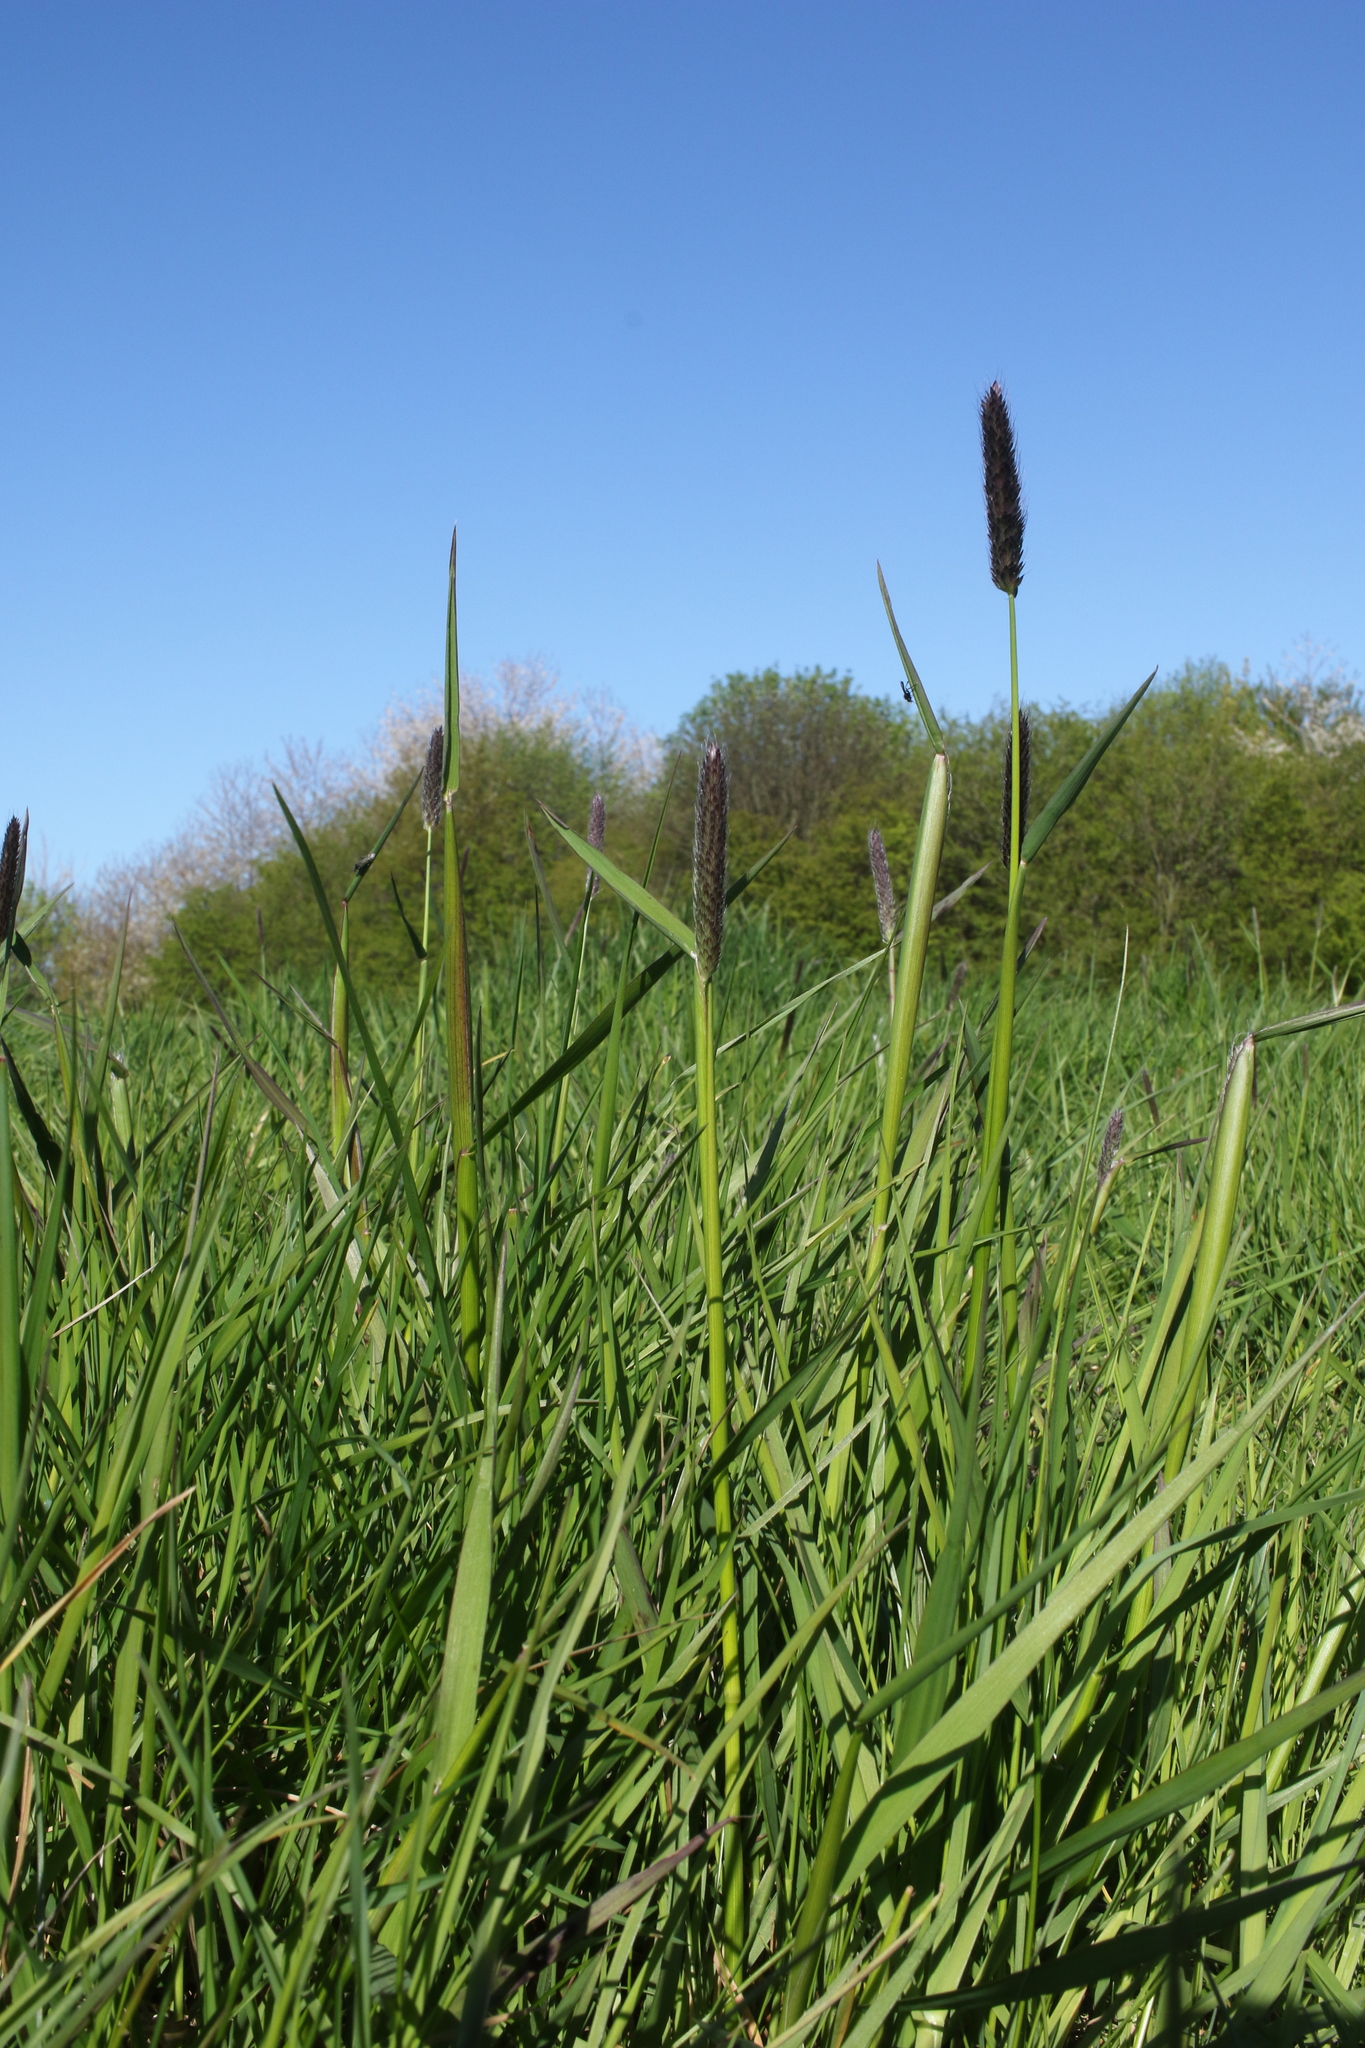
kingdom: Plantae
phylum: Tracheophyta
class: Liliopsida
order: Poales
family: Poaceae
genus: Alopecurus
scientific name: Alopecurus pratensis
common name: Meadow foxtail
